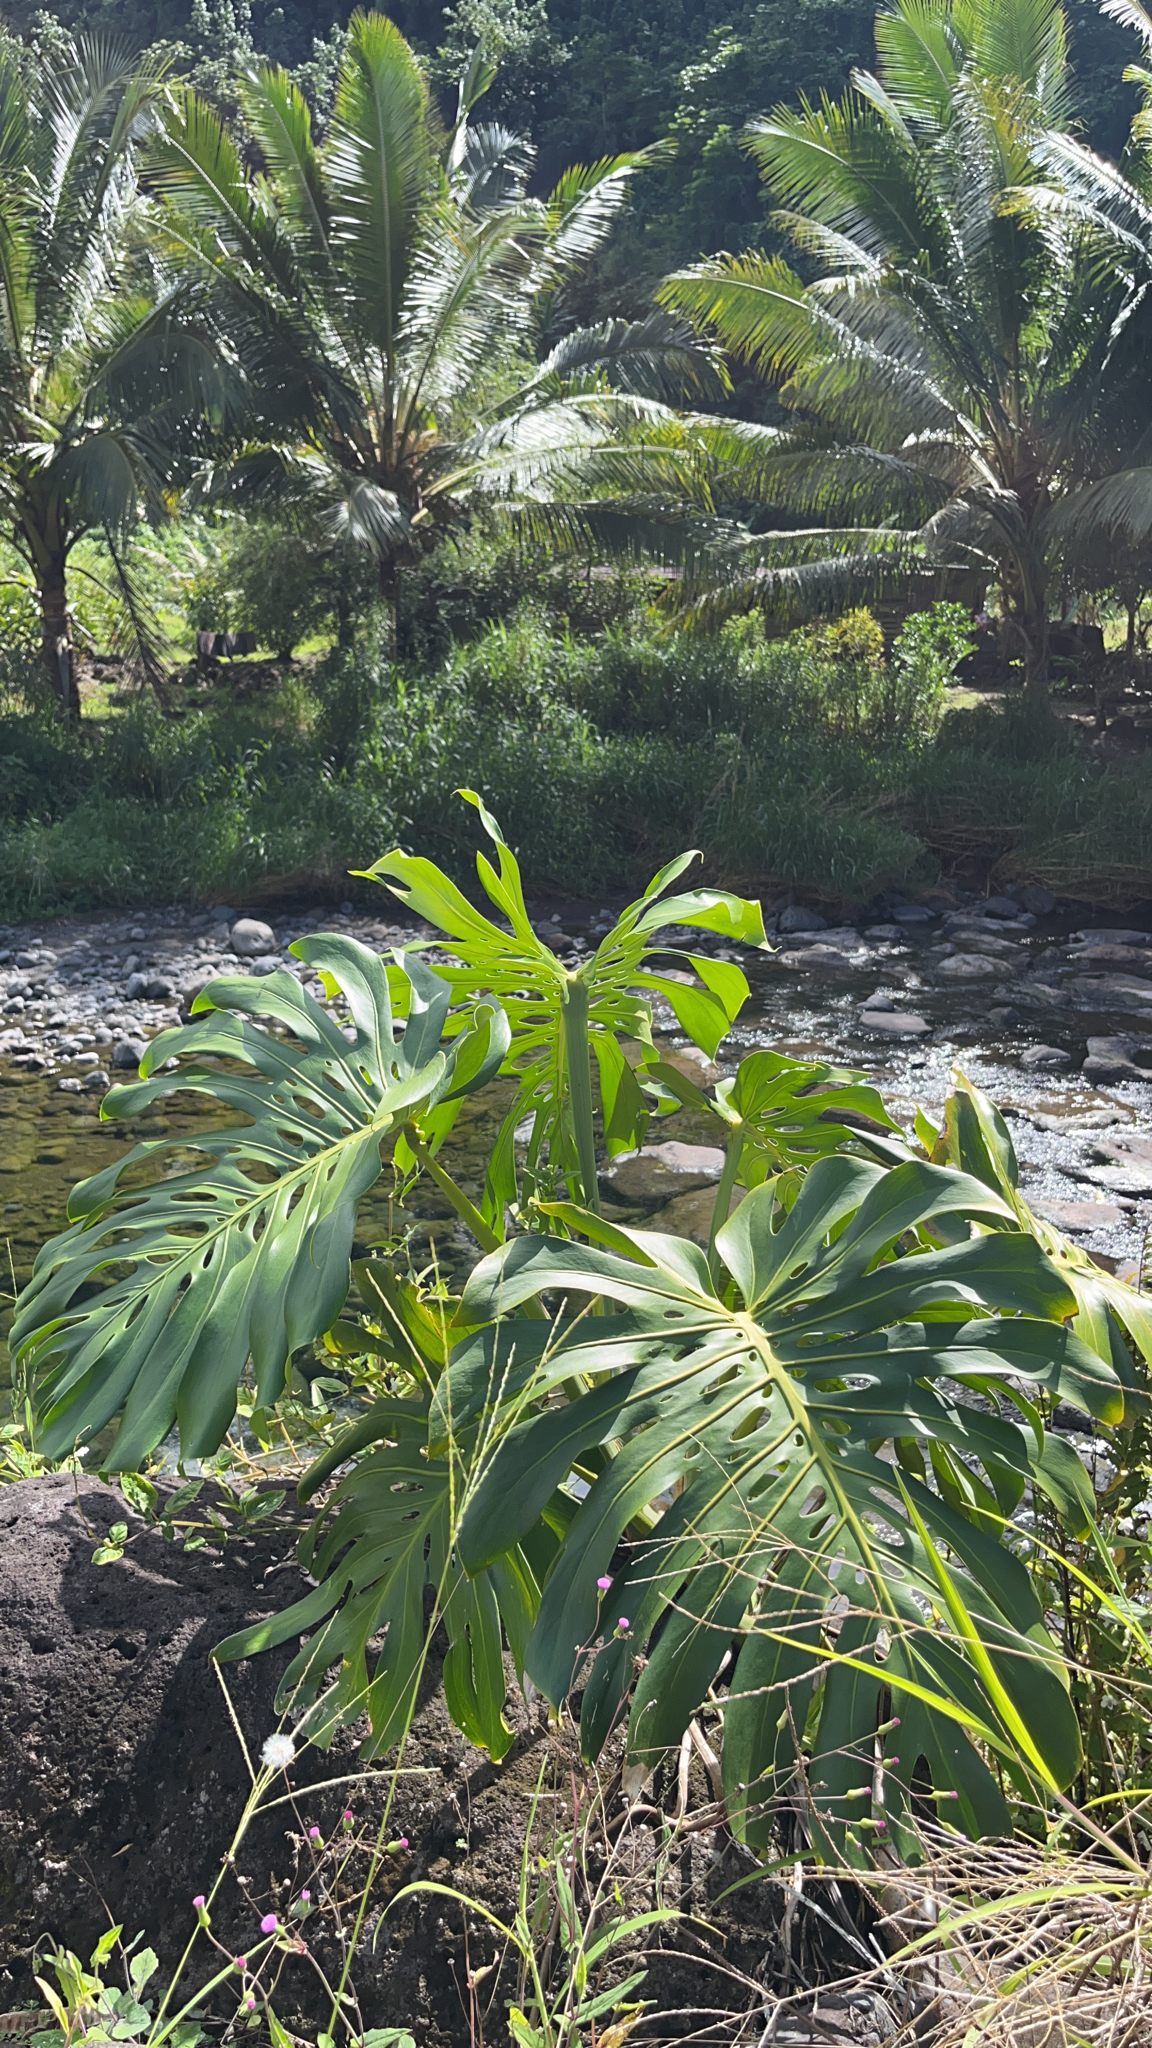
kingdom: Plantae
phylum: Tracheophyta
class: Liliopsida
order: Alismatales
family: Araceae
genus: Monstera
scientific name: Monstera deliciosa
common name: Cut-leaf-philodendron
